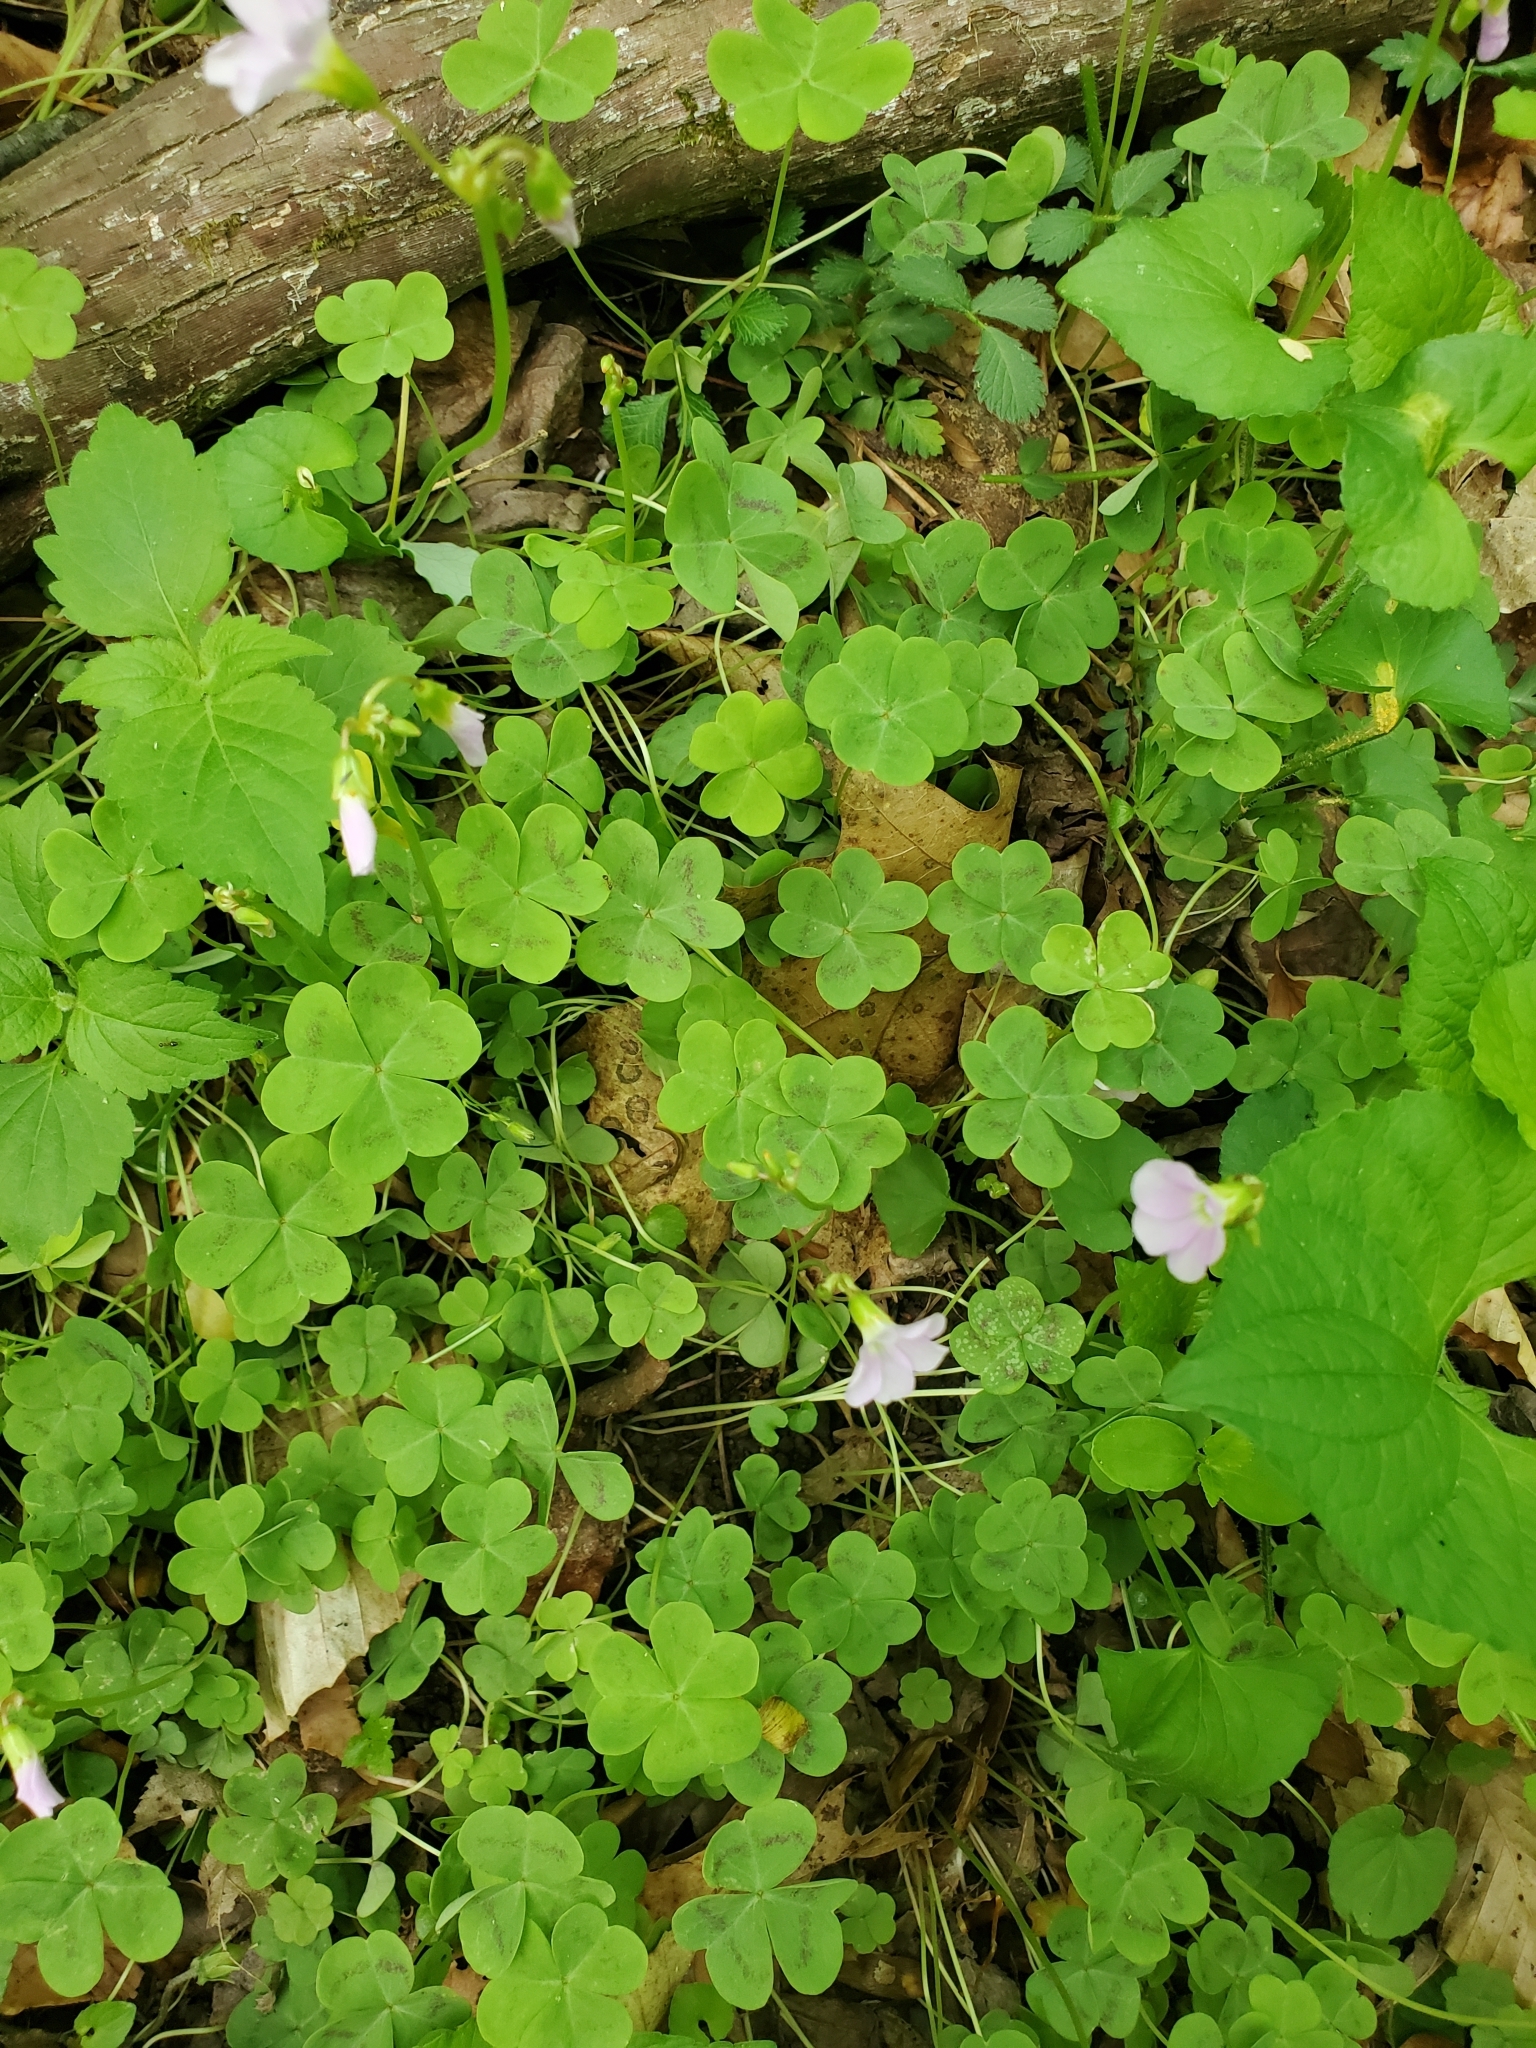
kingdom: Plantae
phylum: Tracheophyta
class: Magnoliopsida
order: Oxalidales
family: Oxalidaceae
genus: Oxalis
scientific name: Oxalis violacea
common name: Violet wood-sorrel
